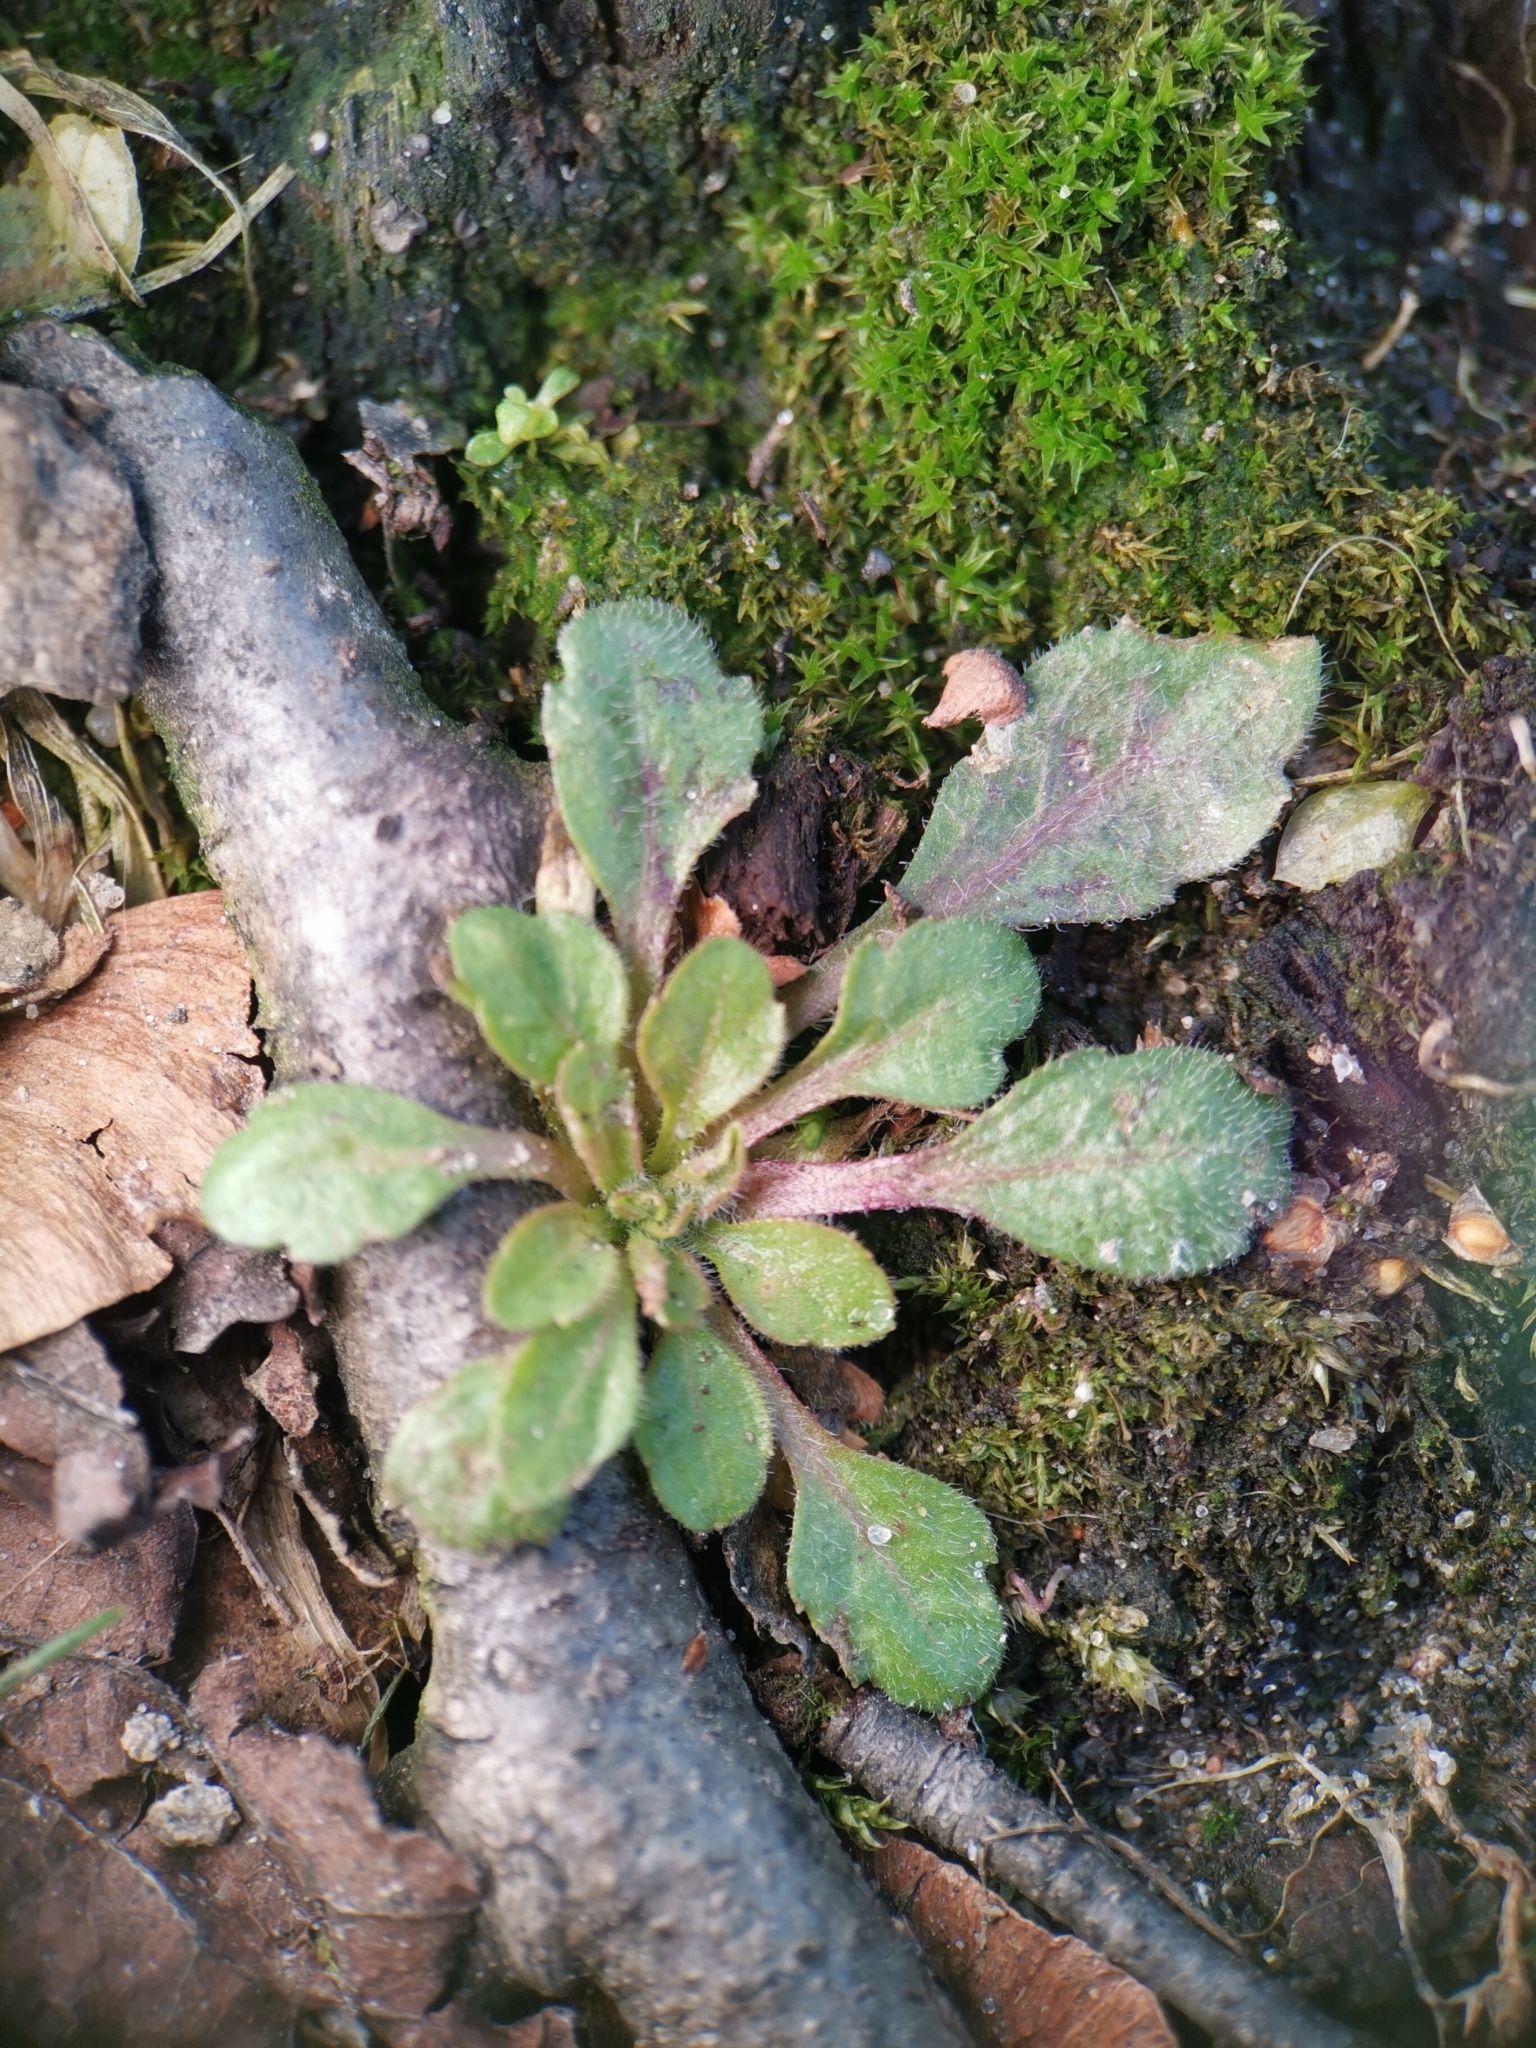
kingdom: Plantae
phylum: Tracheophyta
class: Magnoliopsida
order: Asterales
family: Asteraceae
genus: Erigeron
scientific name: Erigeron canadensis
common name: Canadian fleabane
